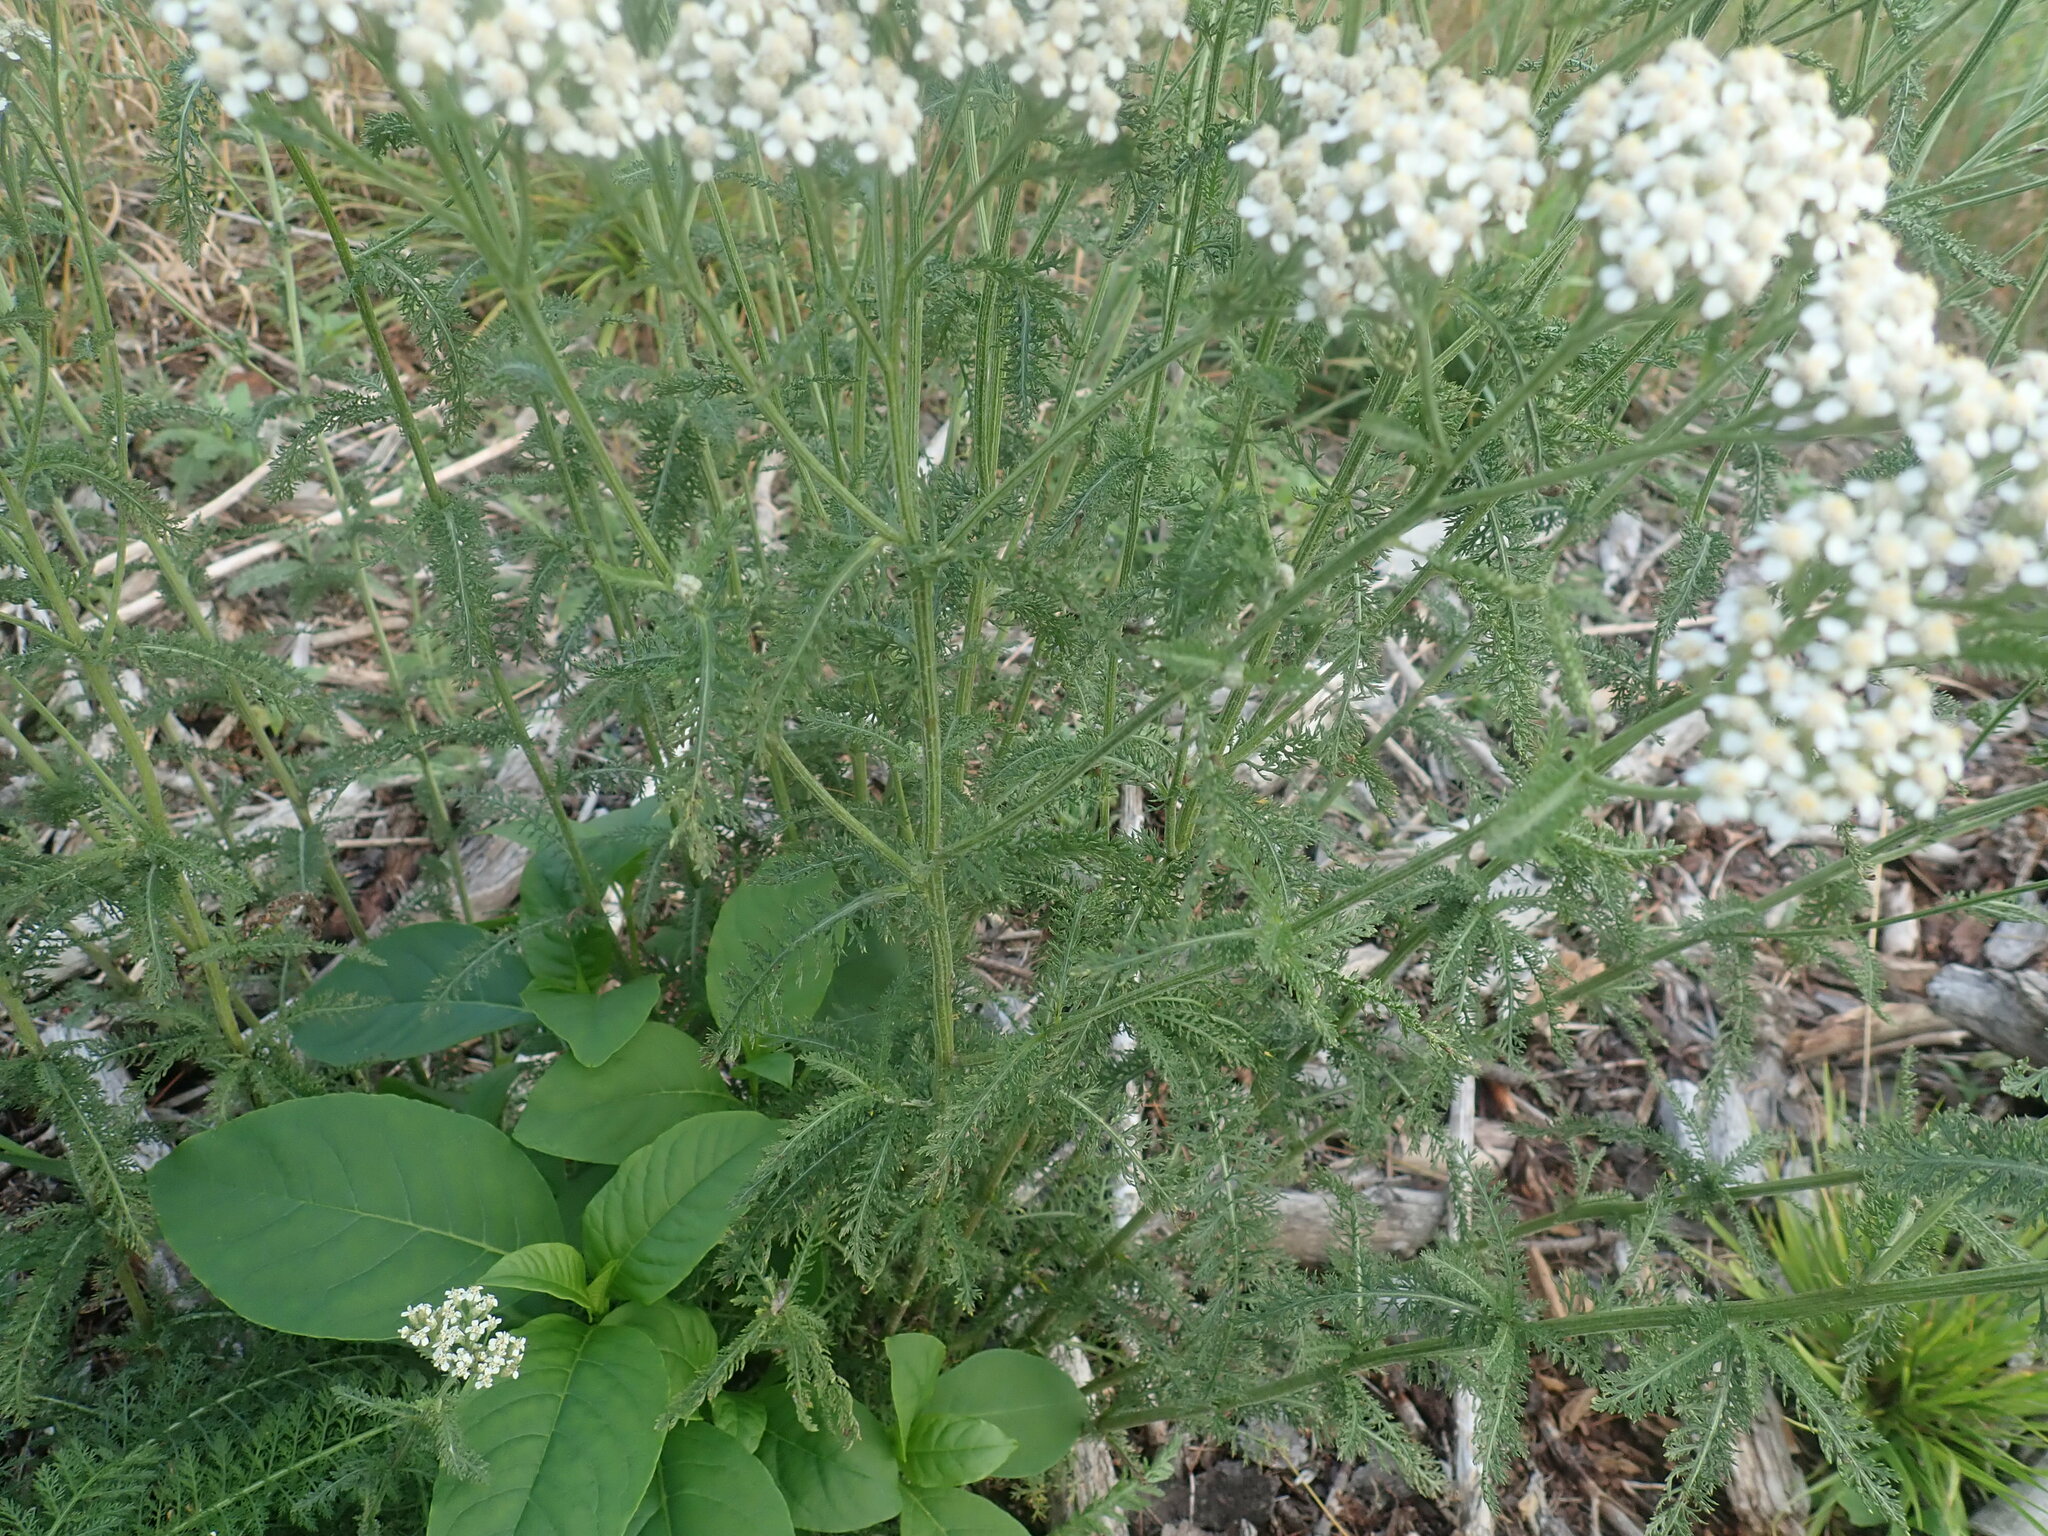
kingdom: Plantae
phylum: Tracheophyta
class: Magnoliopsida
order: Asterales
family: Asteraceae
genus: Achillea
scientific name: Achillea millefolium
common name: Yarrow
